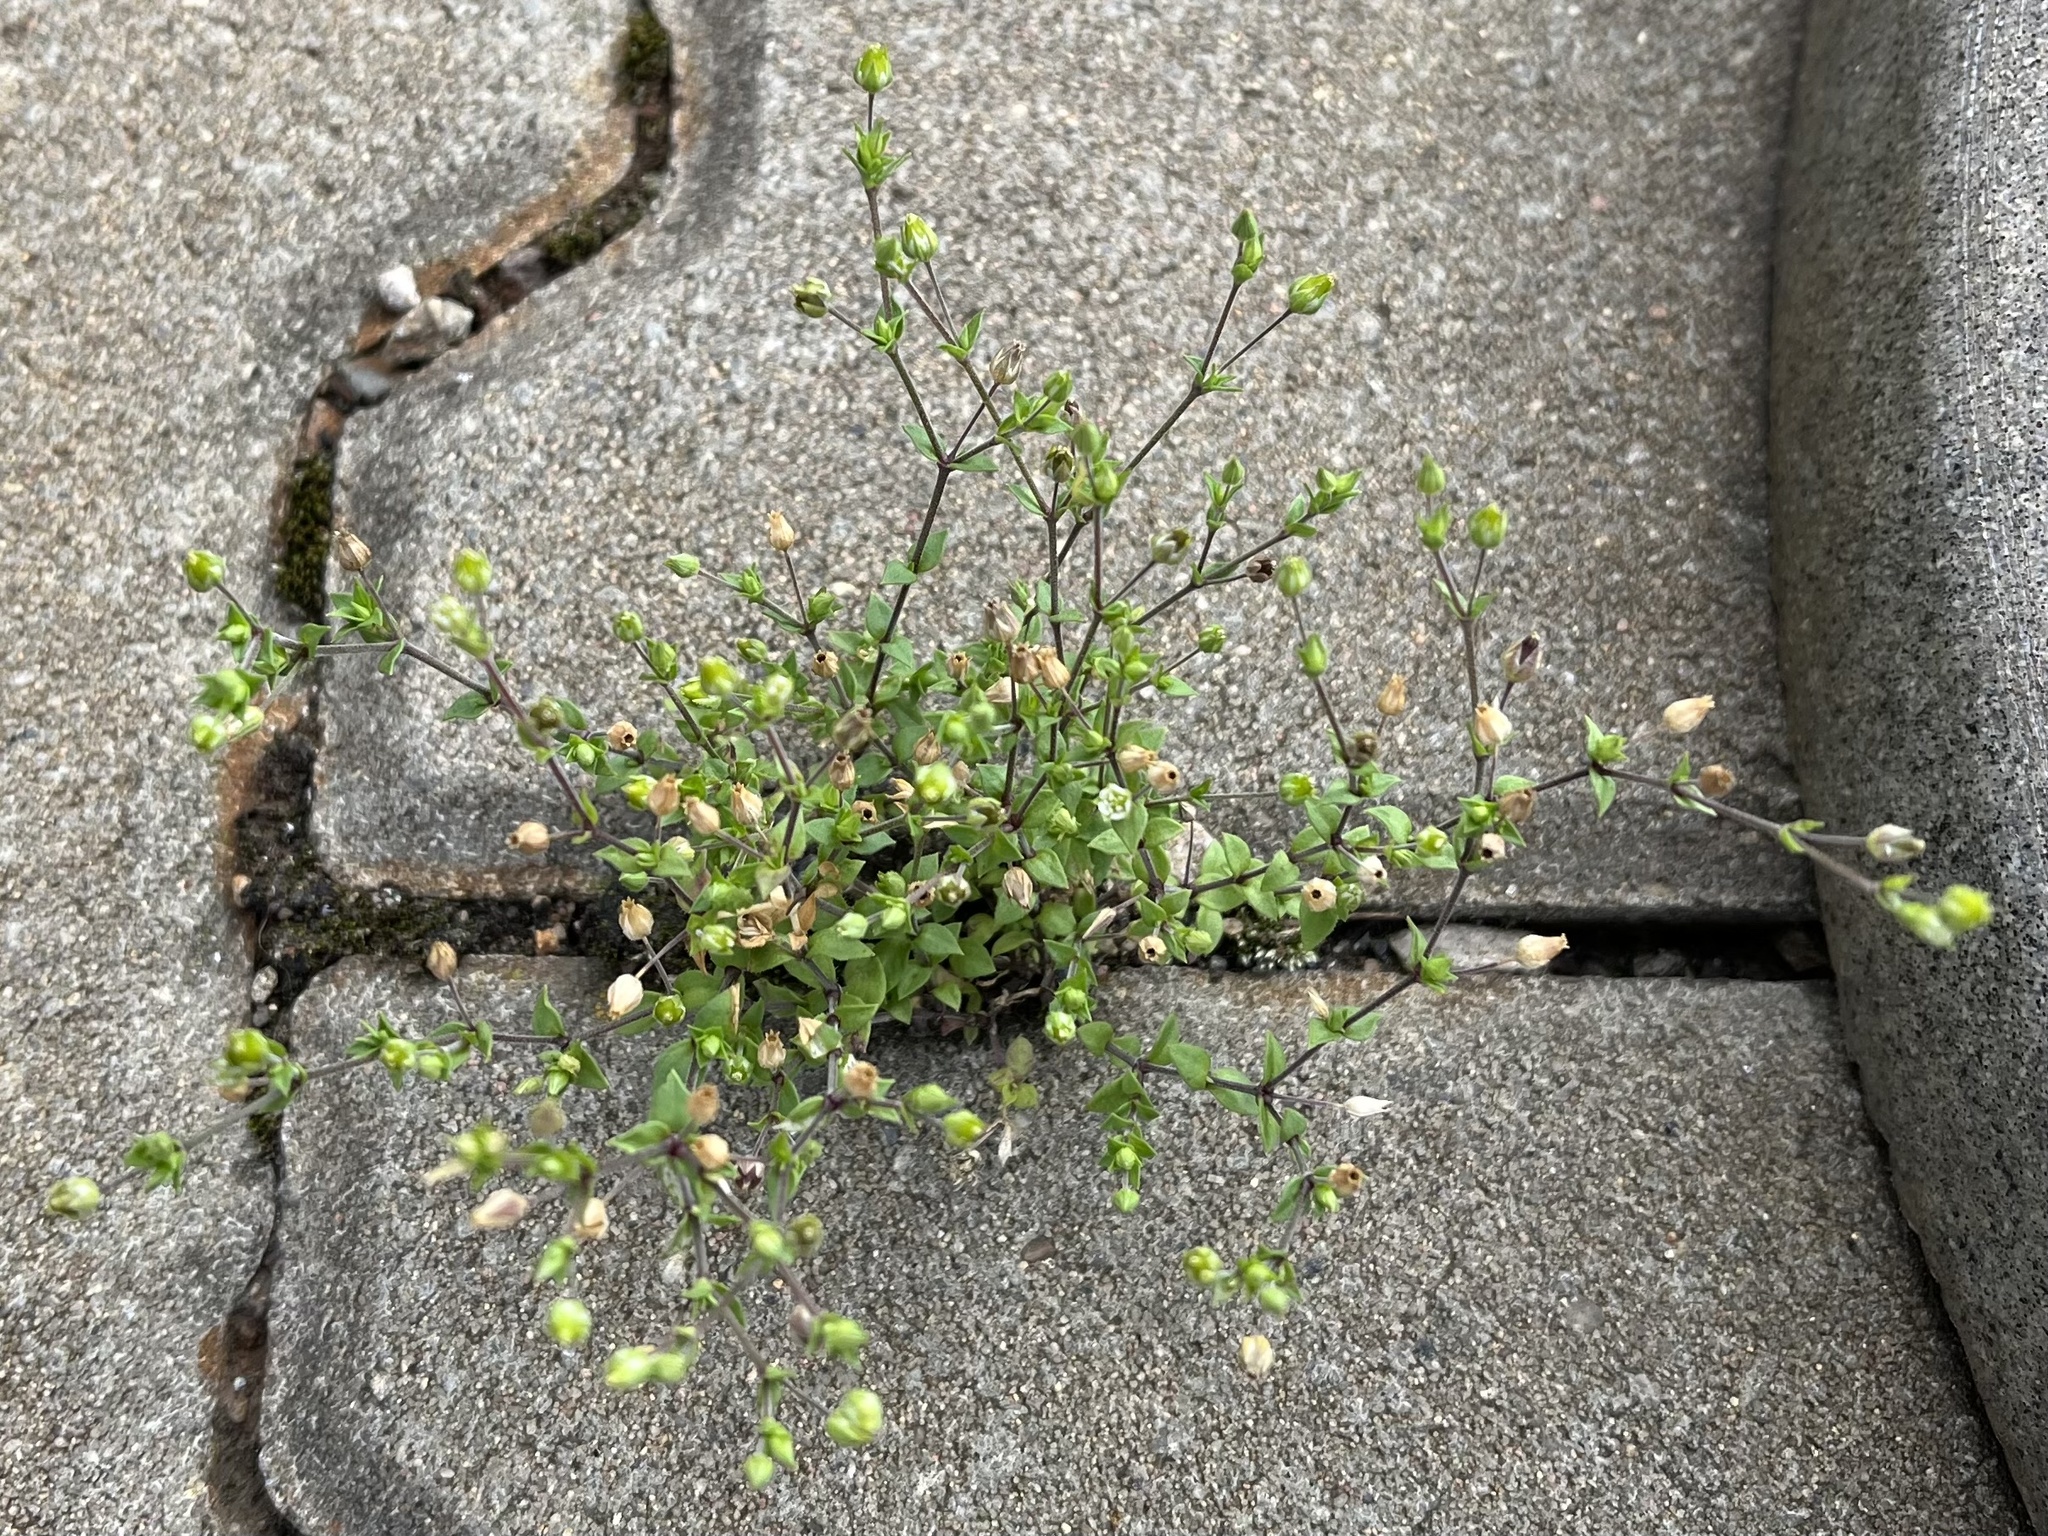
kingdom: Plantae
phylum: Tracheophyta
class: Magnoliopsida
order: Caryophyllales
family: Caryophyllaceae
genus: Arenaria
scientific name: Arenaria serpyllifolia
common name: Thyme-leaved sandwort
